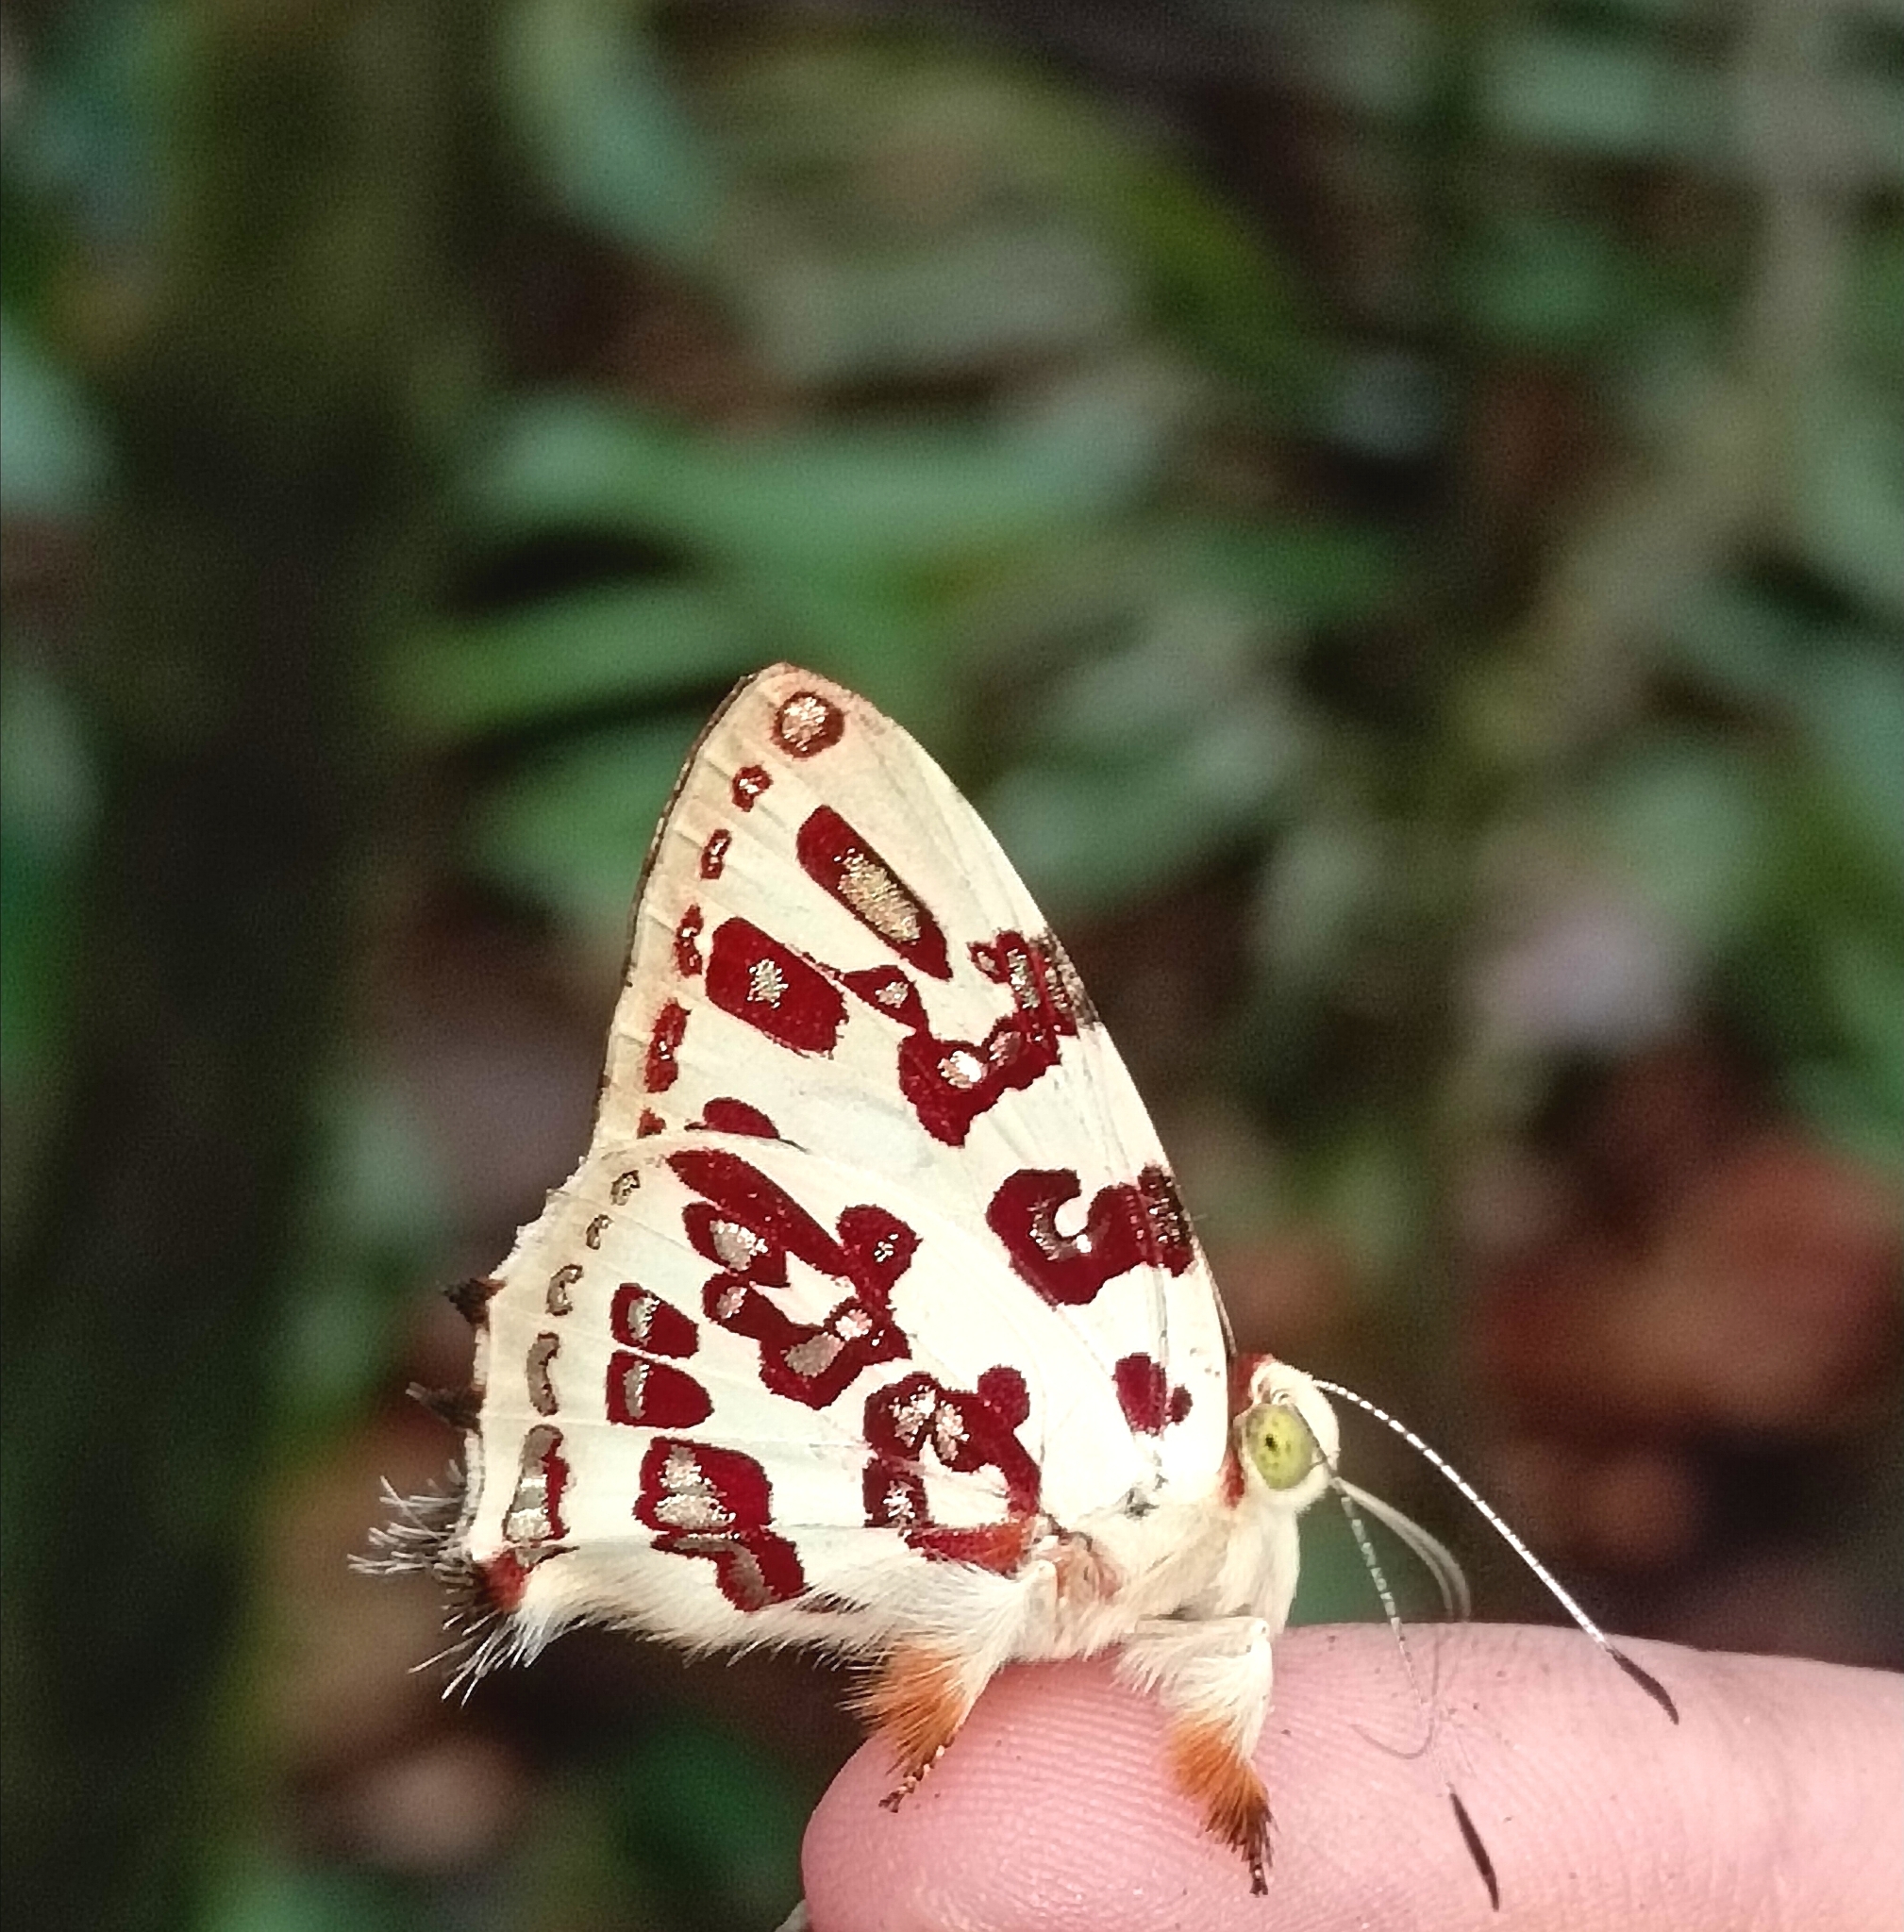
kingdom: Animalia
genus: Anteros
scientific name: Anteros acheus
